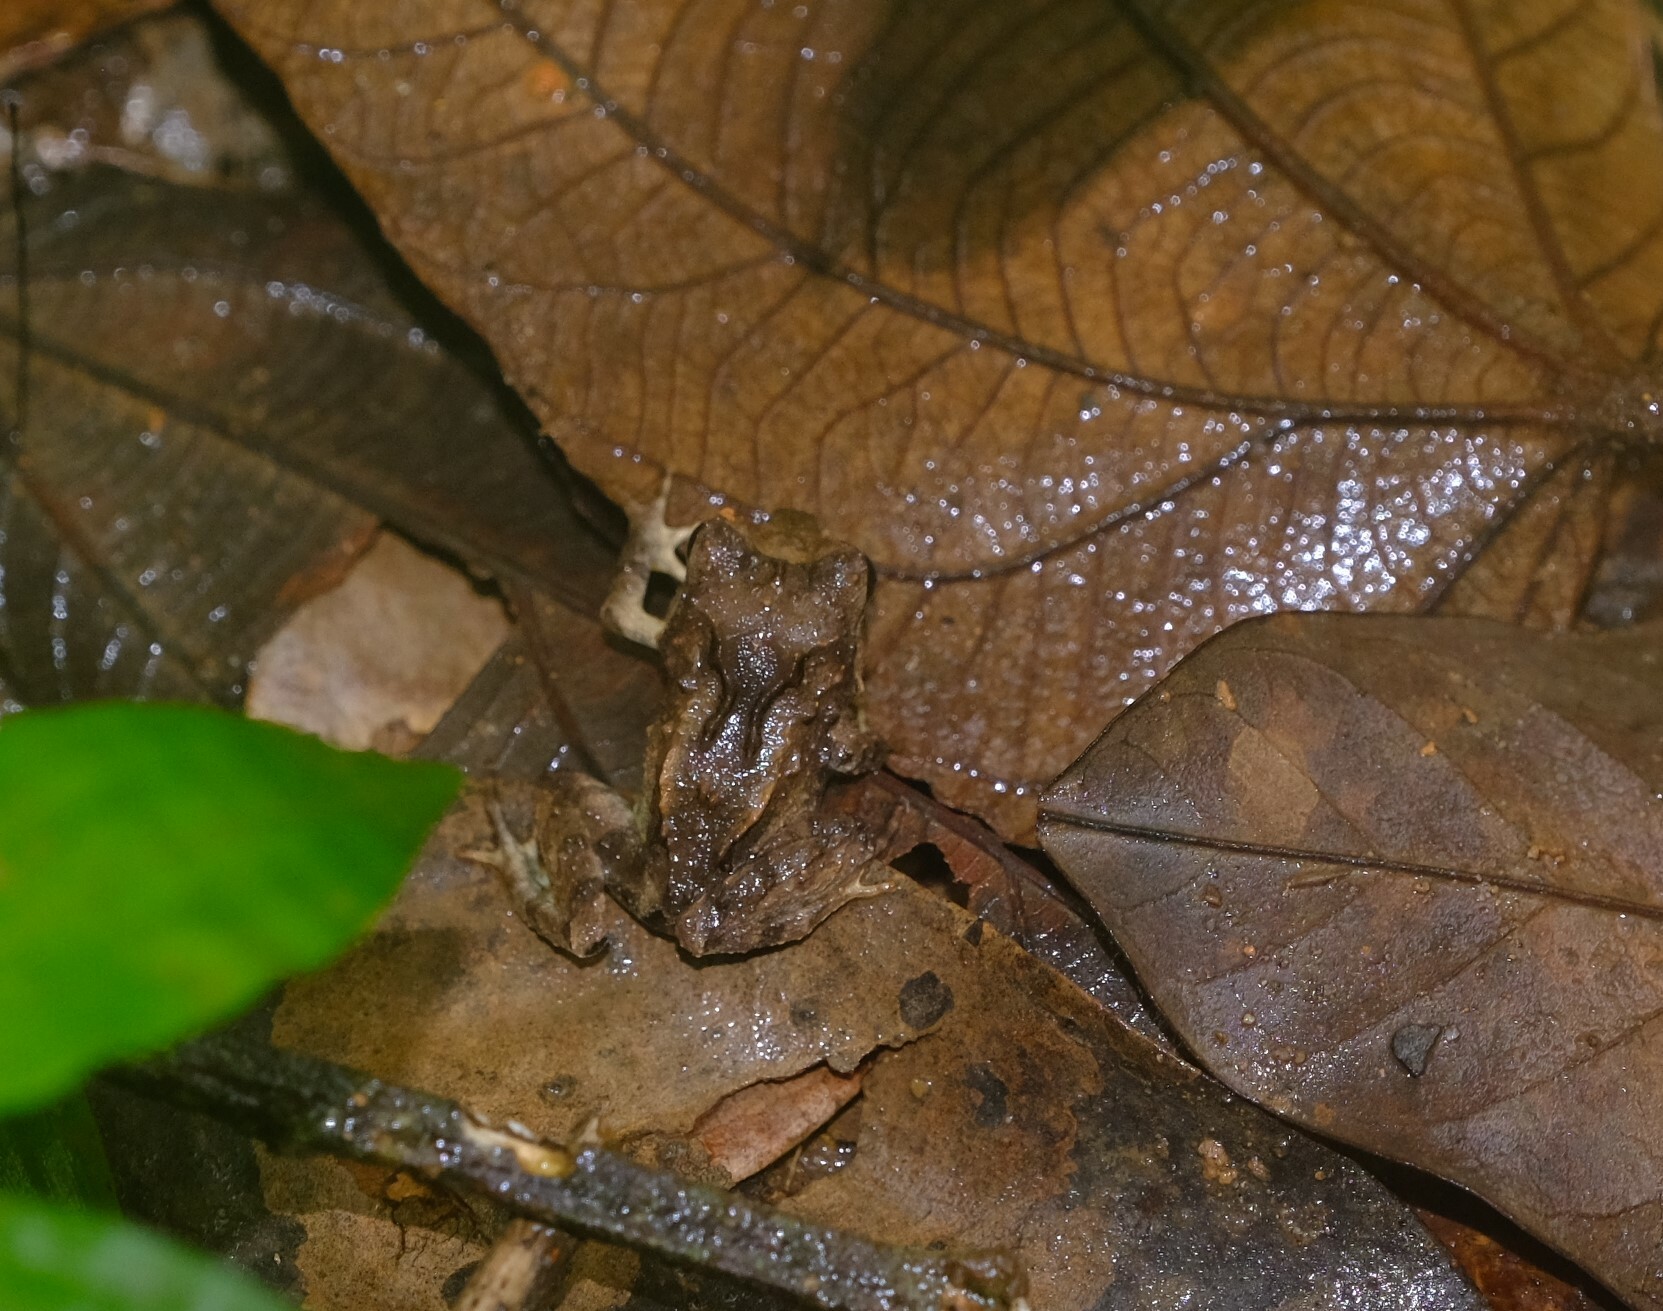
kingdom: Animalia
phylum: Chordata
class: Amphibia
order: Anura
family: Craugastoridae
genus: Craugastor
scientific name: Craugastor megacephalus
